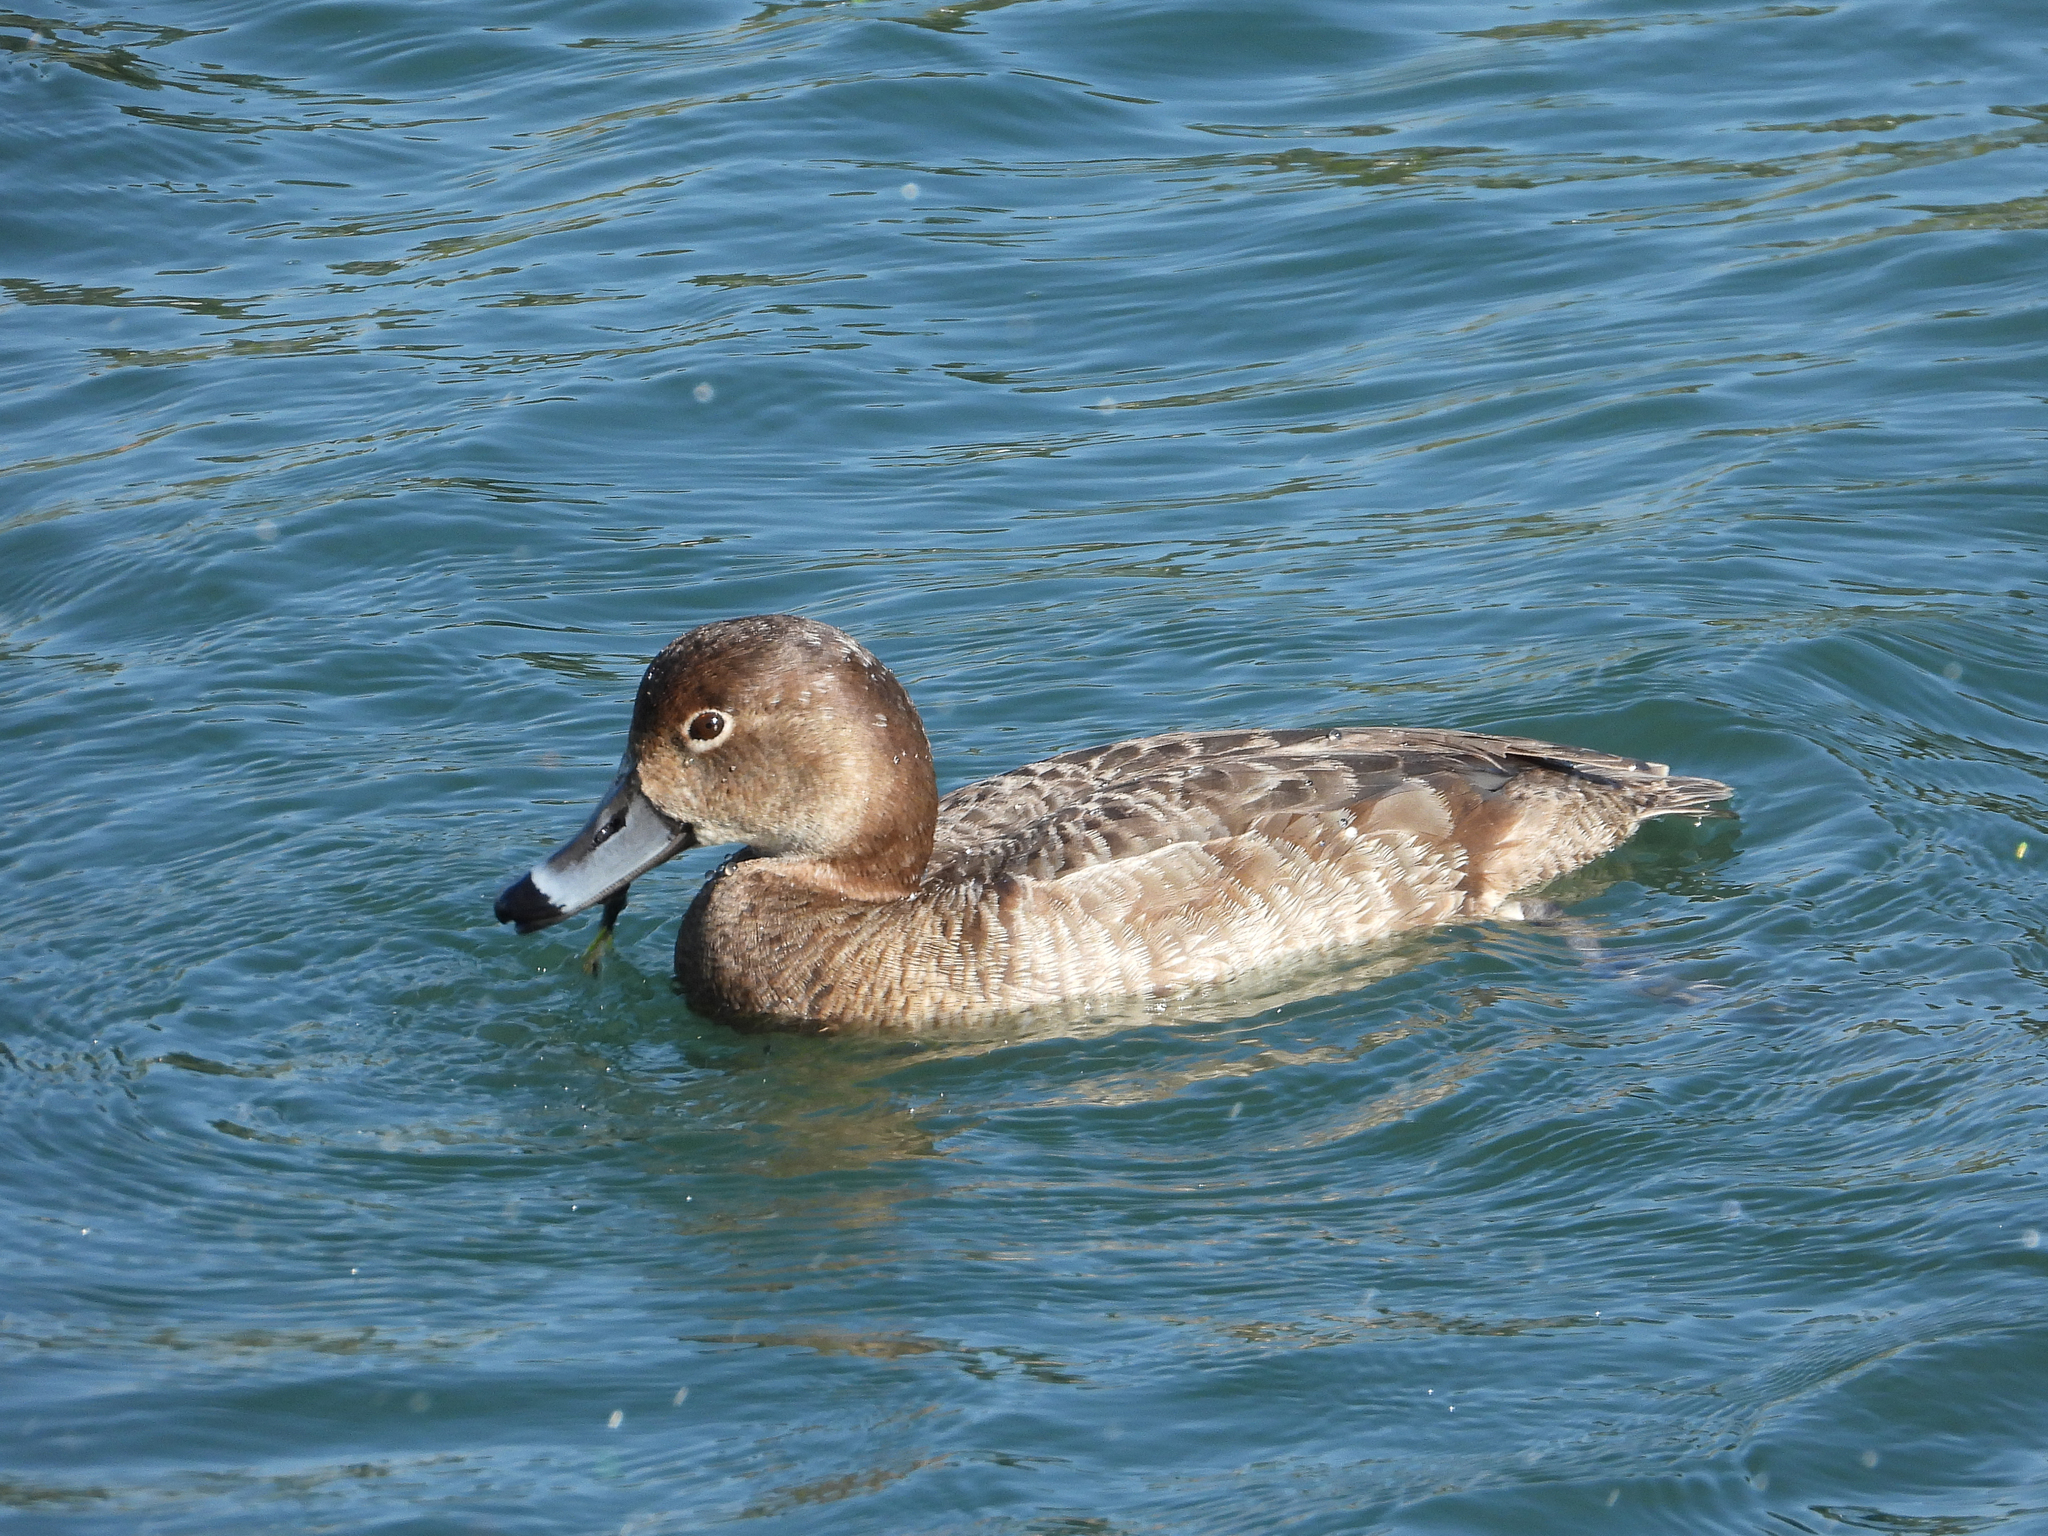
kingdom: Animalia
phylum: Chordata
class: Aves
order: Anseriformes
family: Anatidae
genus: Aythya
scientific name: Aythya americana
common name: Redhead
